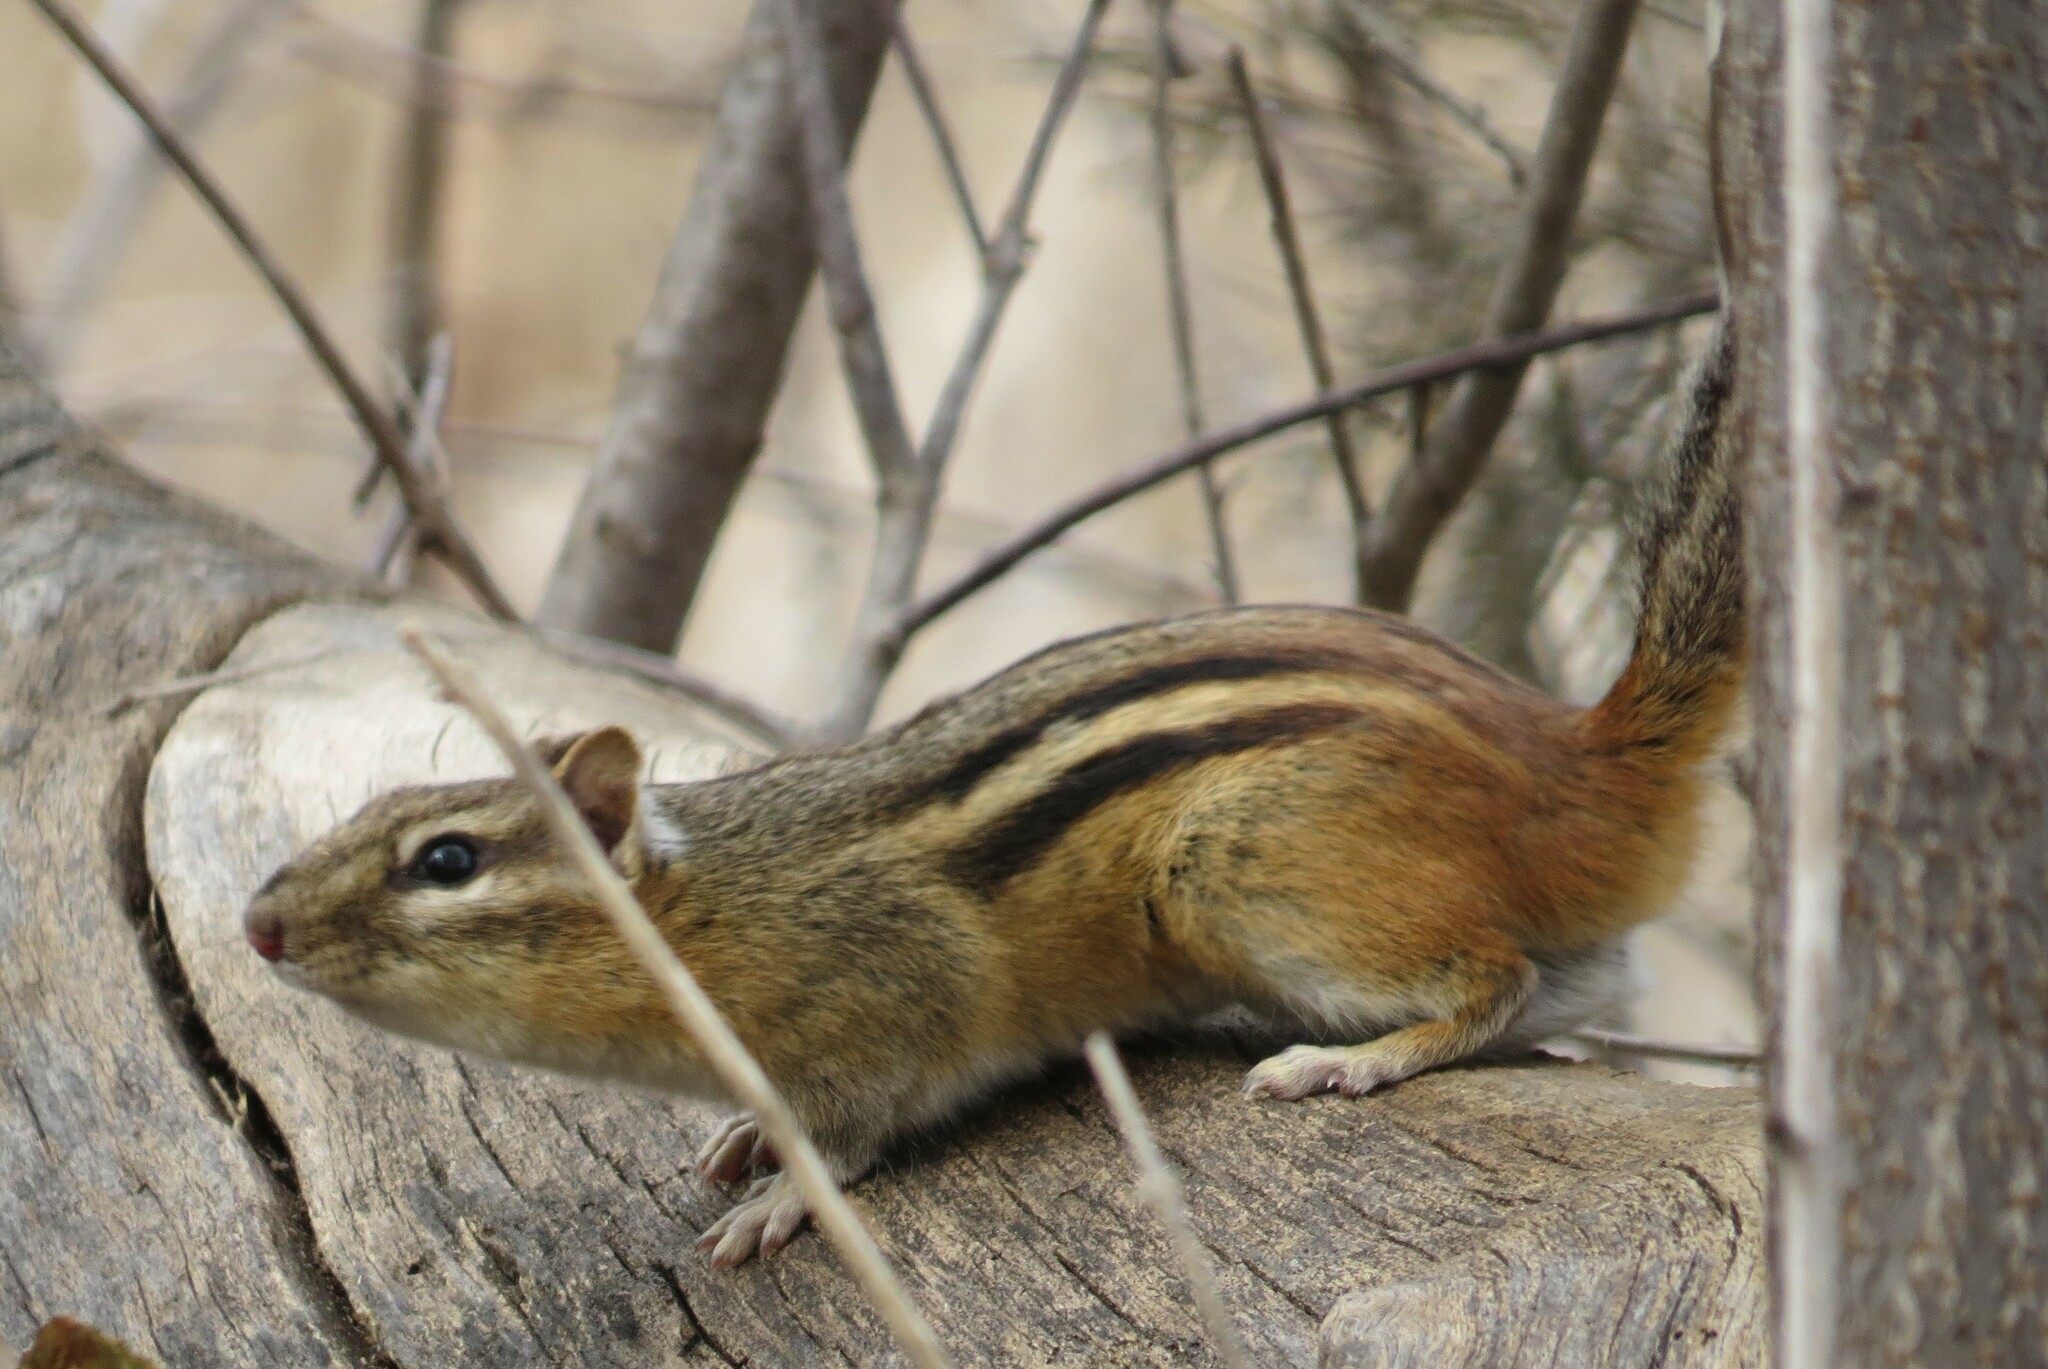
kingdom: Animalia
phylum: Chordata
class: Mammalia
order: Rodentia
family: Sciuridae
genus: Tamias
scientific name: Tamias striatus
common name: Eastern chipmunk
